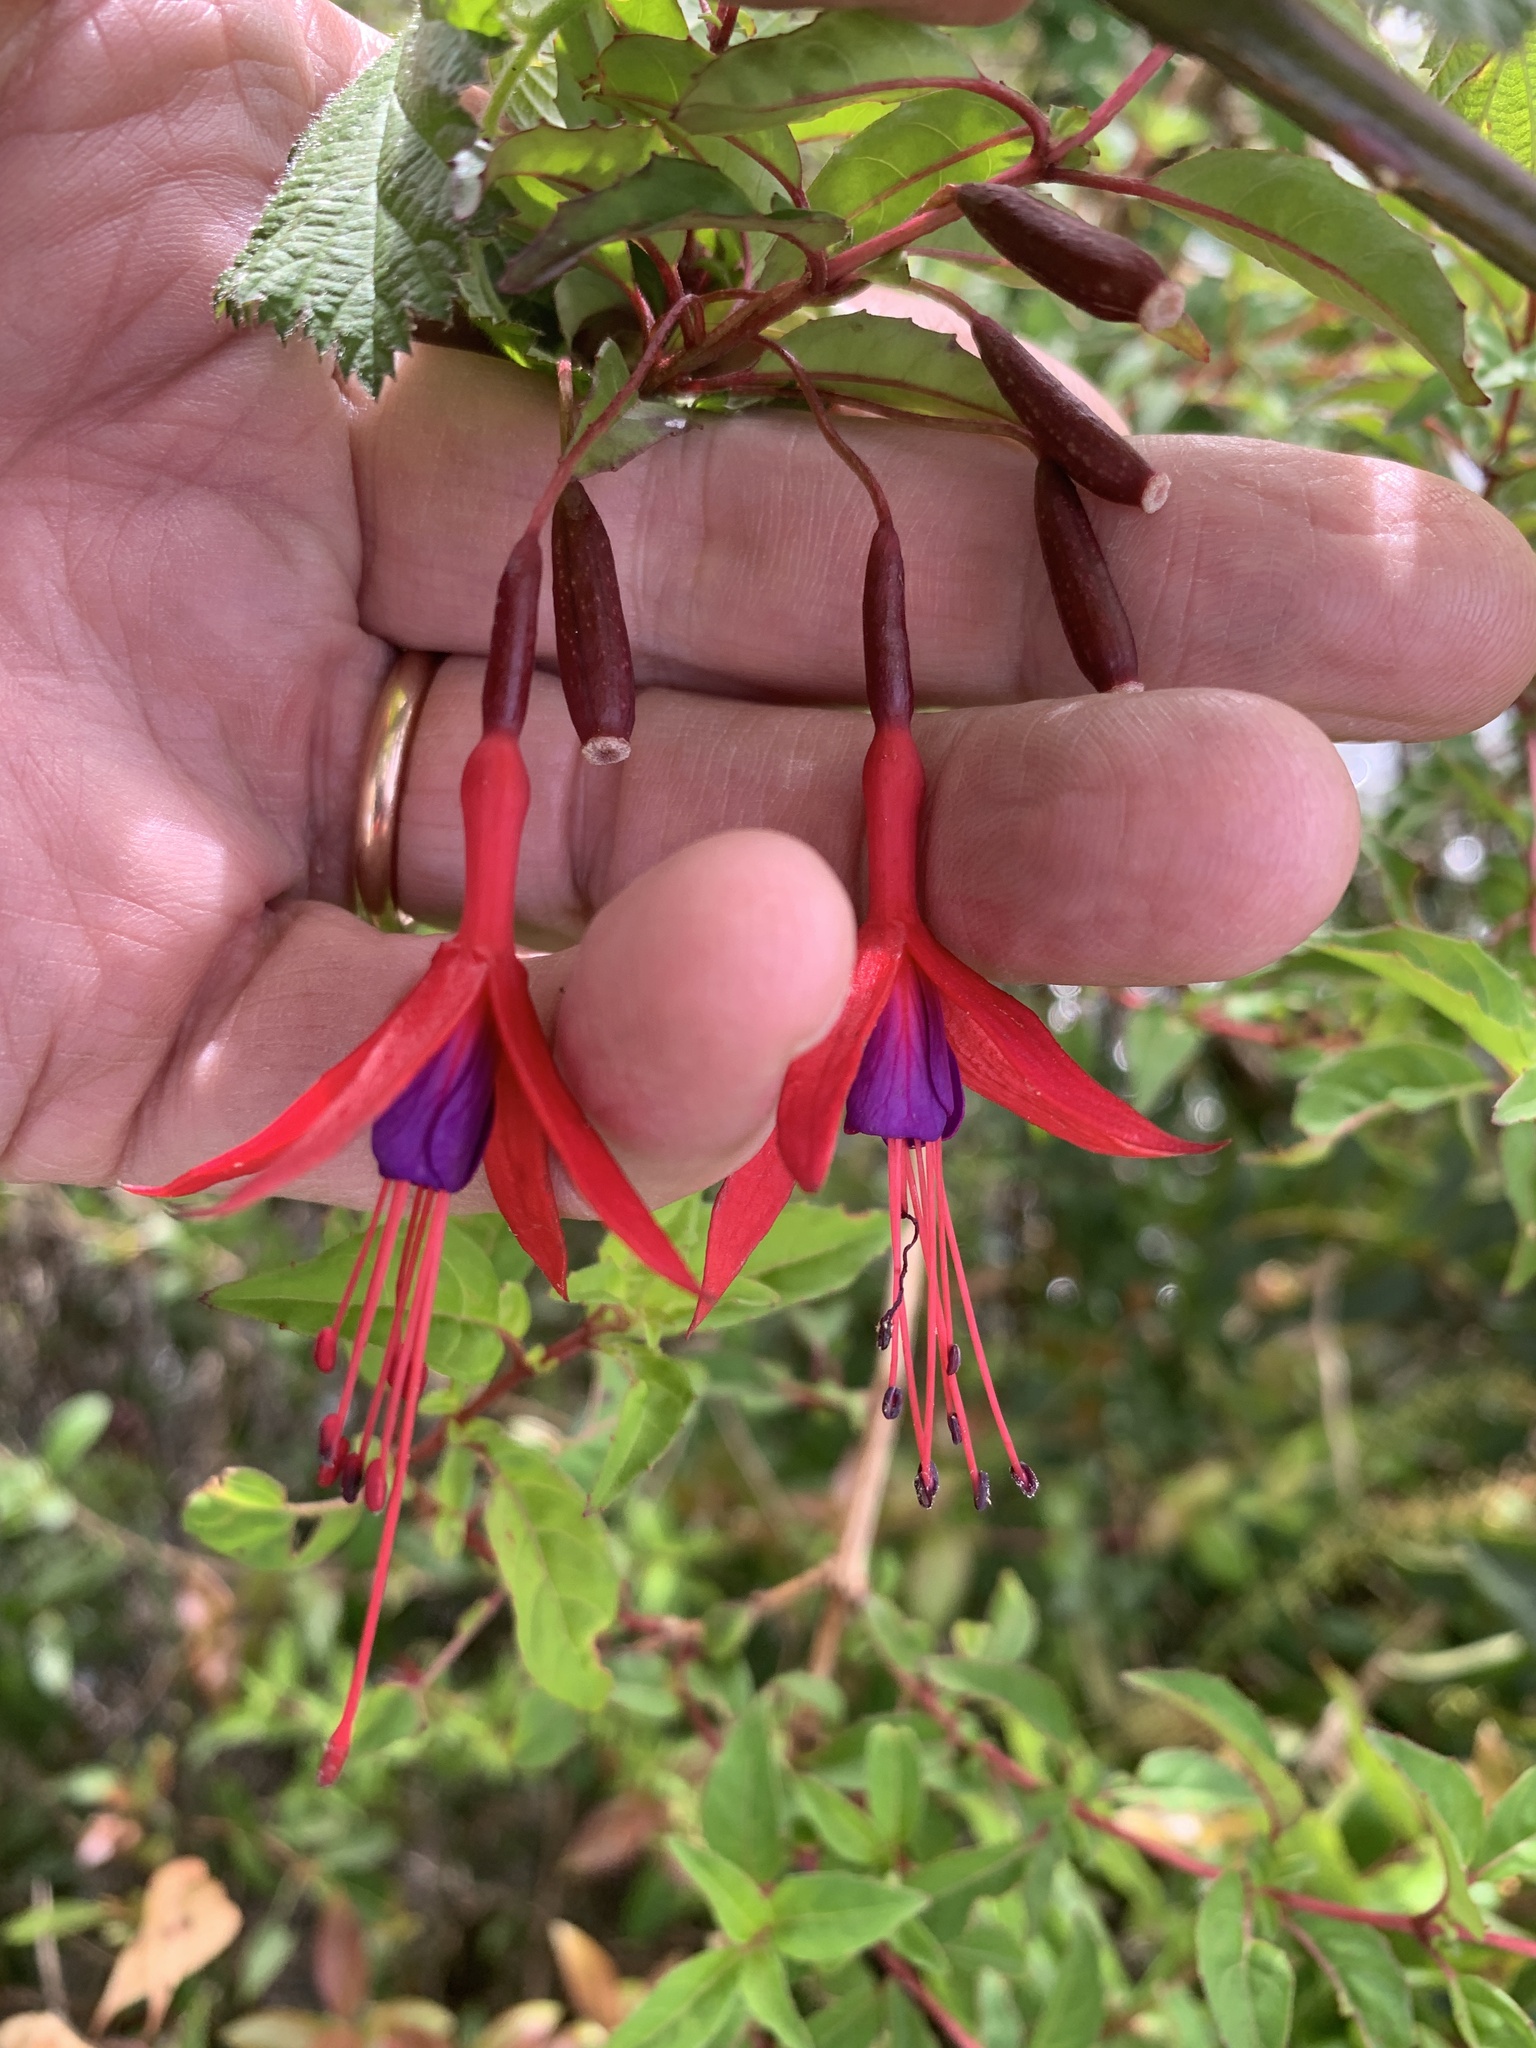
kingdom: Plantae
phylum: Tracheophyta
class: Magnoliopsida
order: Myrtales
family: Onagraceae
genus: Fuchsia
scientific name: Fuchsia magellanica
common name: Hardy fuchsia
